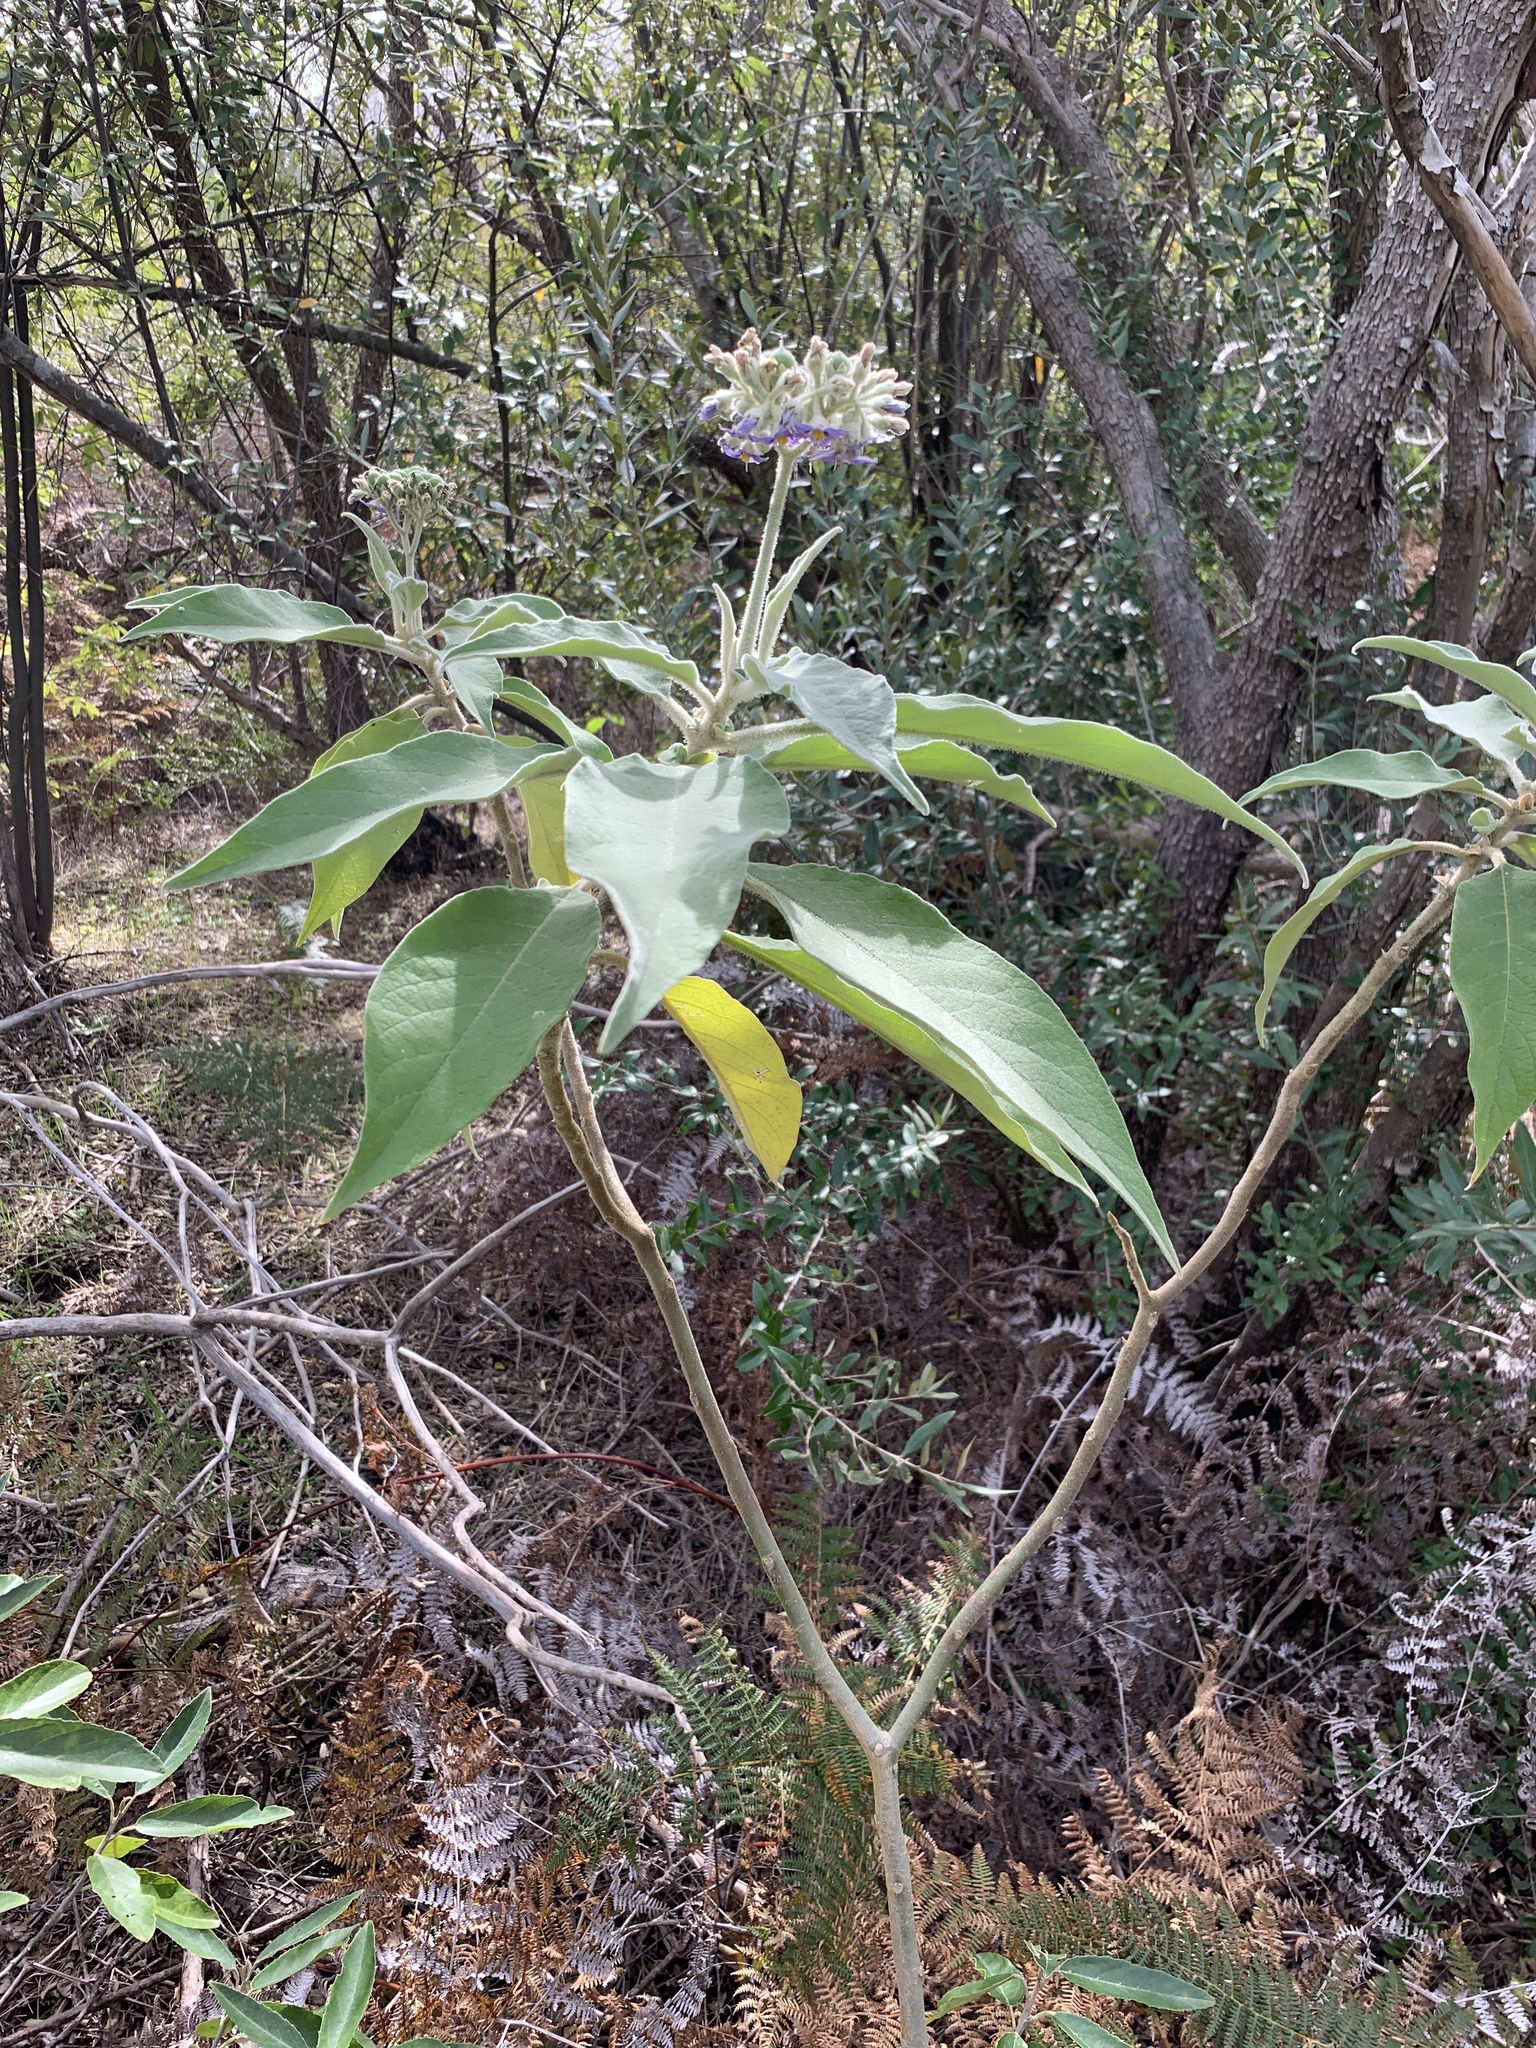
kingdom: Plantae
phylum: Tracheophyta
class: Magnoliopsida
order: Solanales
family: Solanaceae
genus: Solanum
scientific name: Solanum mauritianum
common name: Earleaf nightshade
